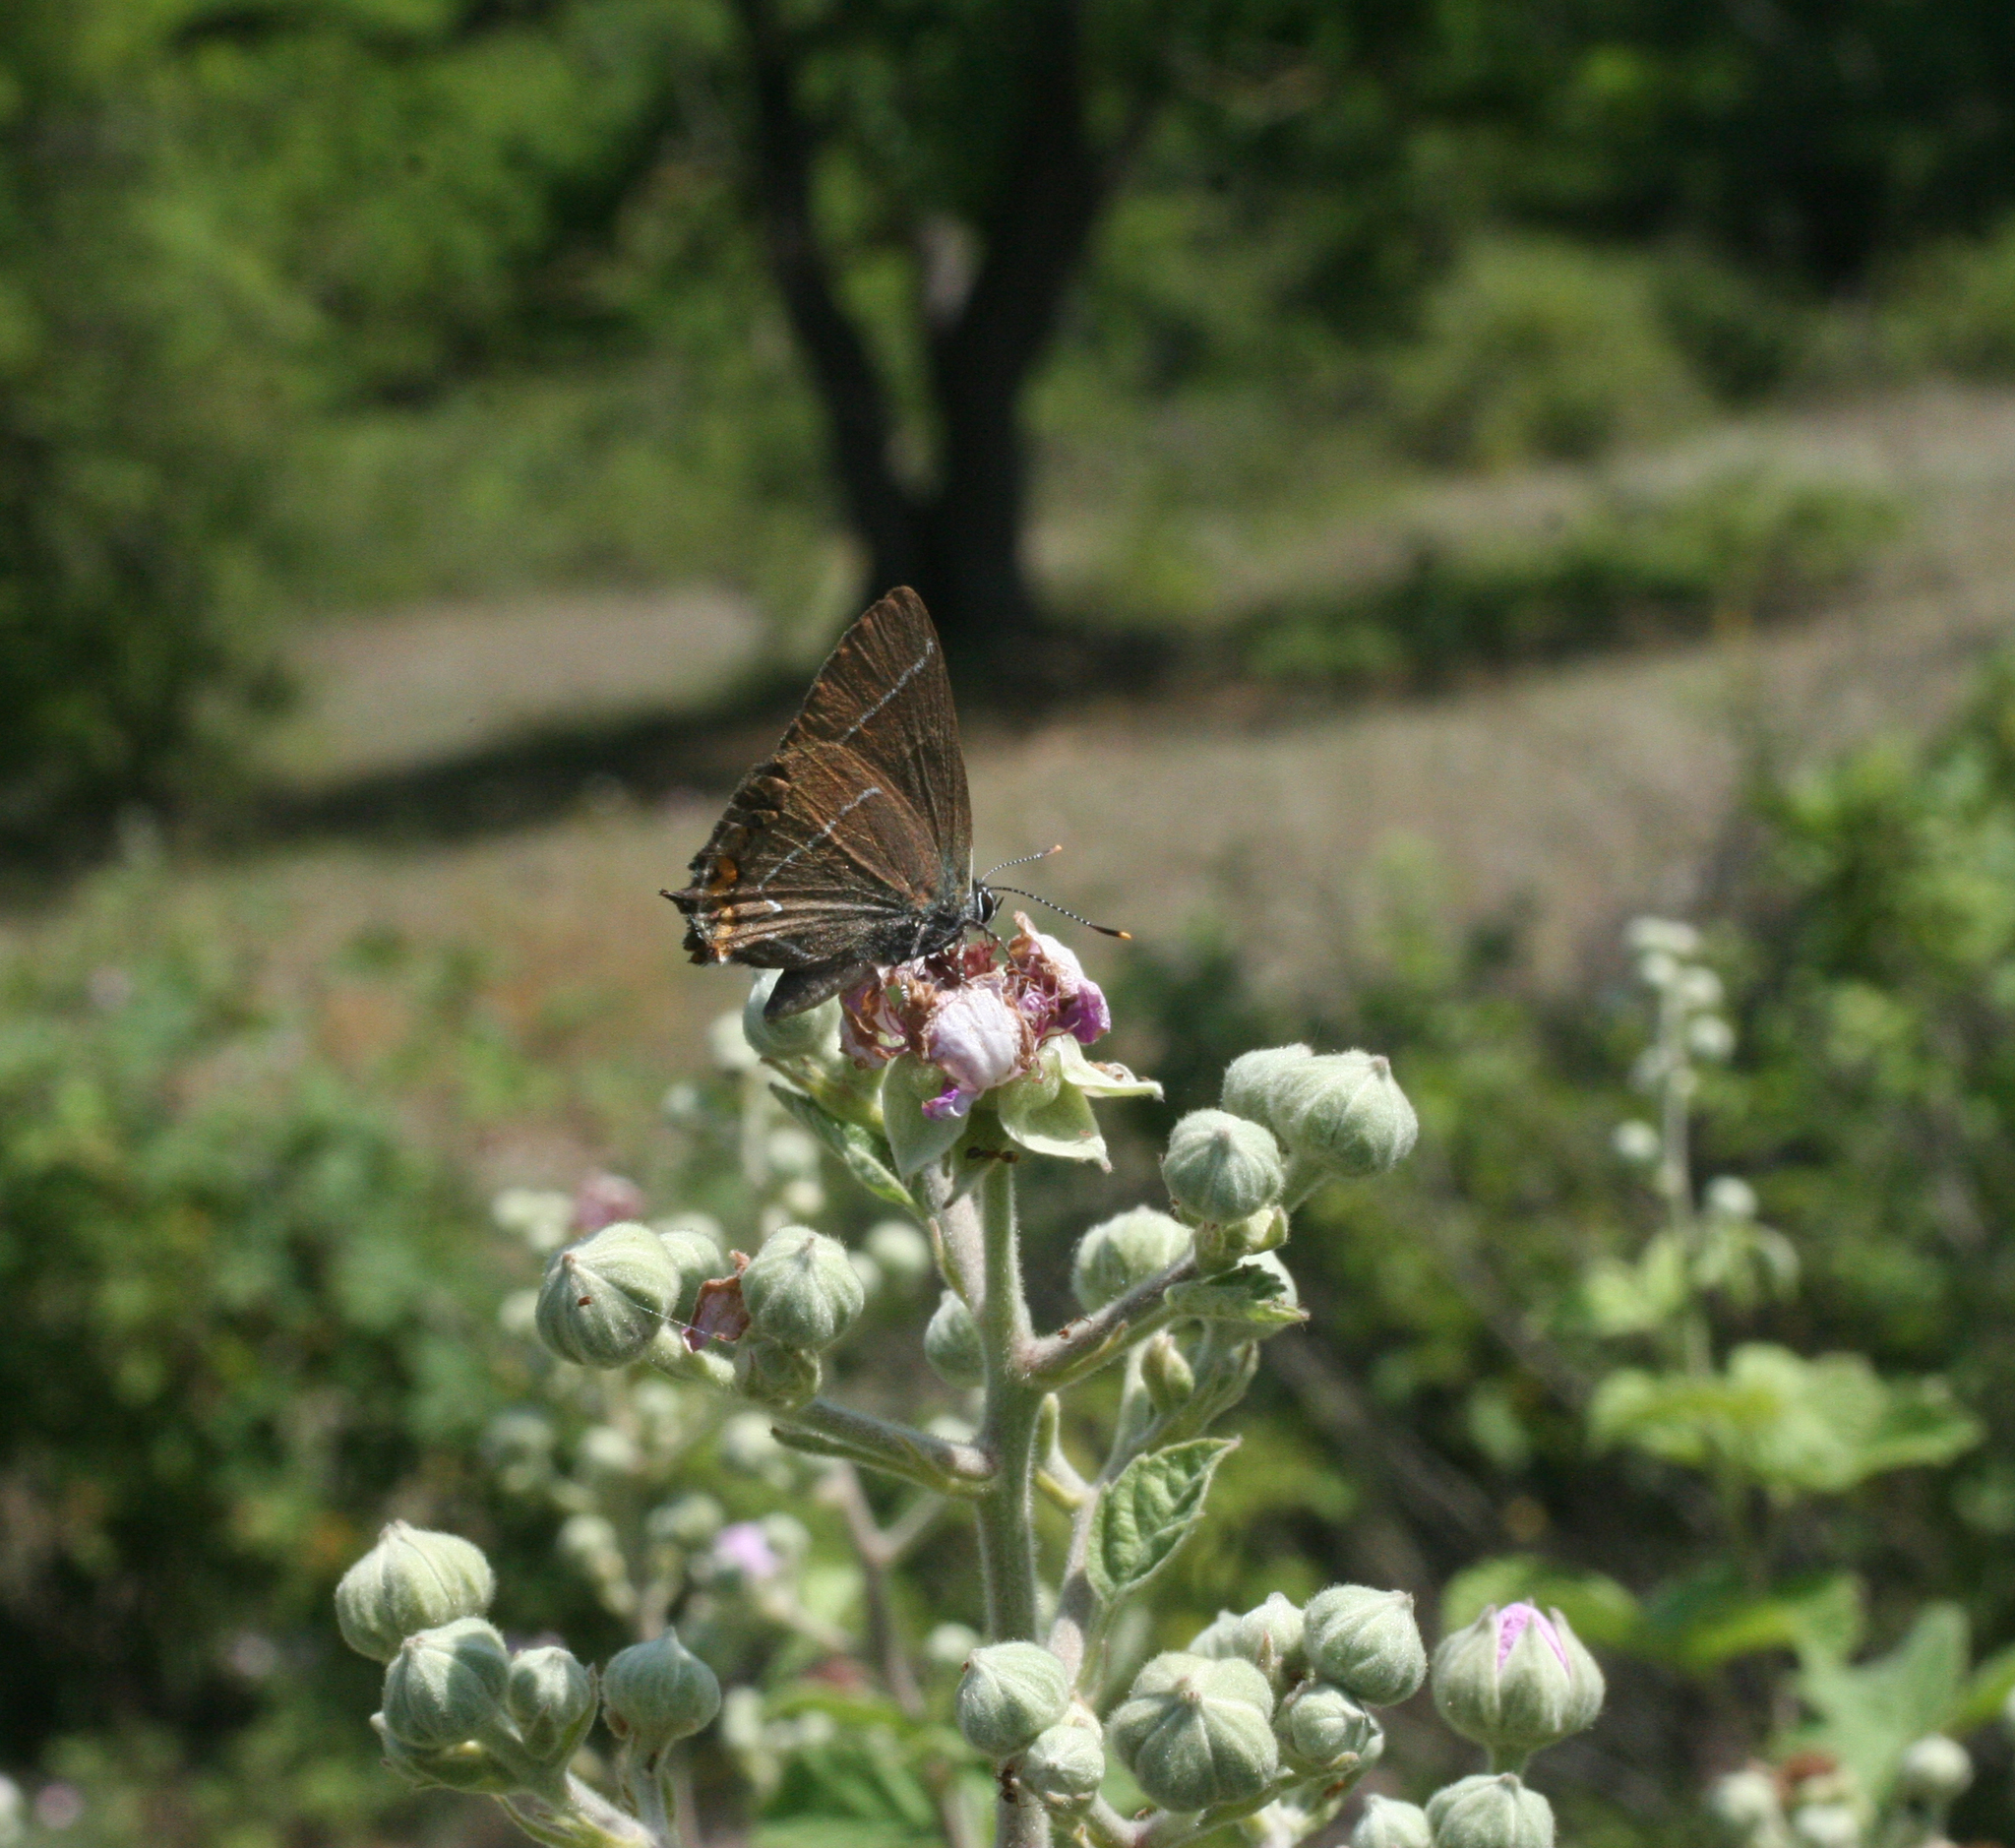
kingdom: Plantae
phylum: Tracheophyta
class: Magnoliopsida
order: Rosales
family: Rosaceae
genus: Rubus
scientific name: Rubus sanctus
